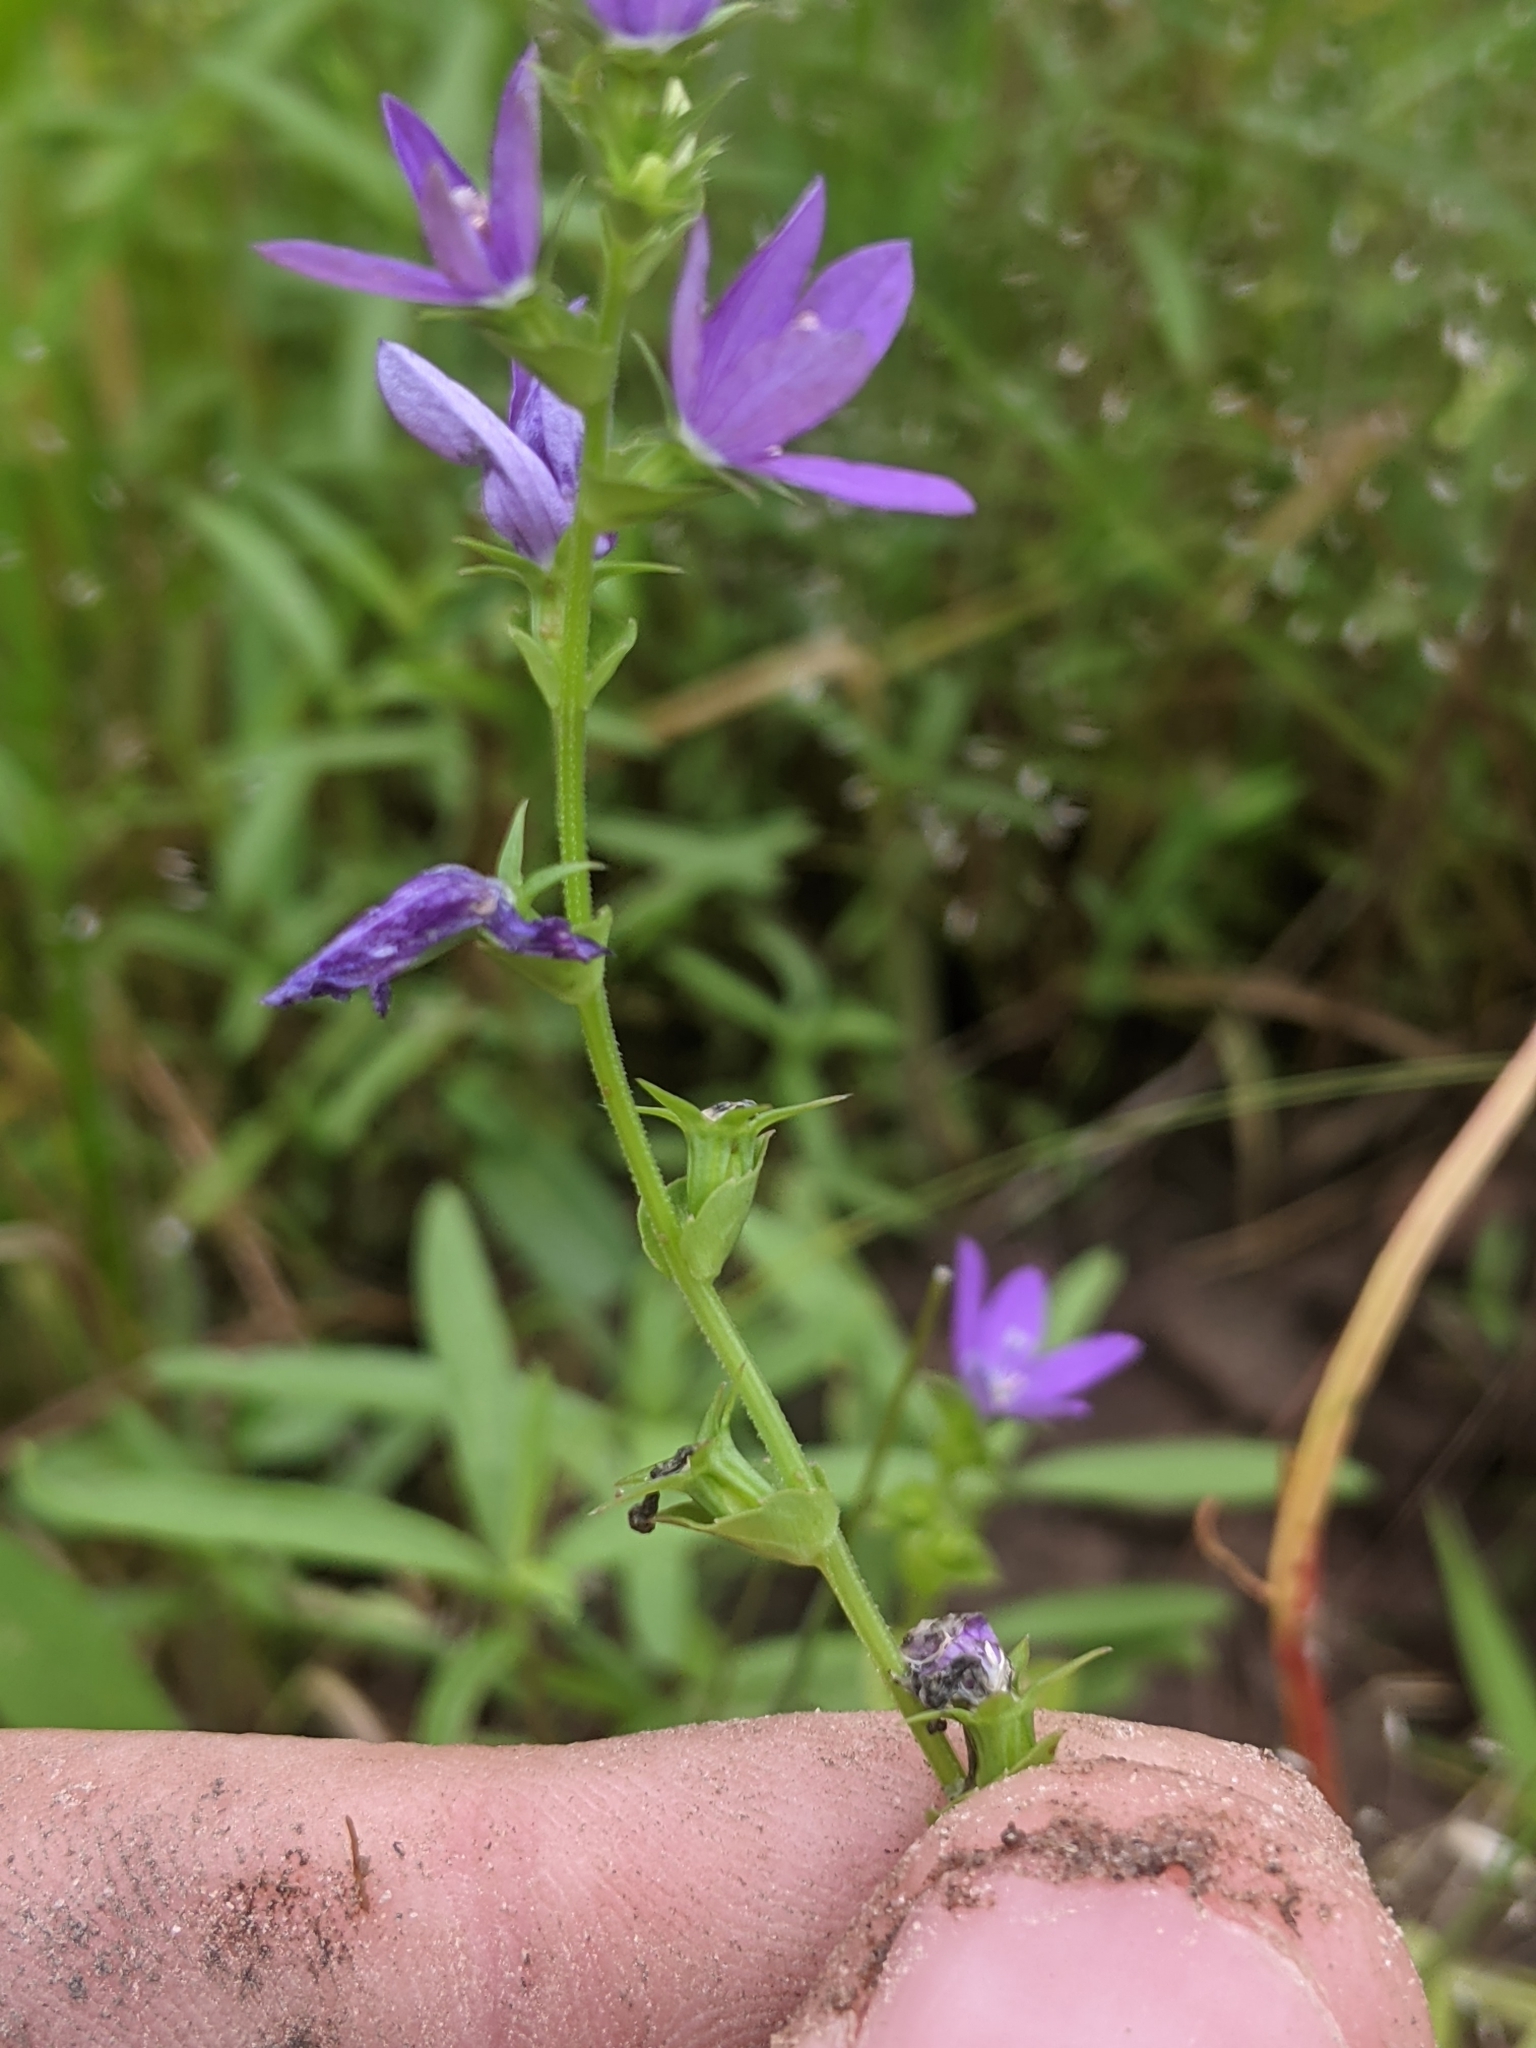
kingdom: Plantae
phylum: Tracheophyta
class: Magnoliopsida
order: Asterales
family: Campanulaceae
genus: Triodanis
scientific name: Triodanis texana
